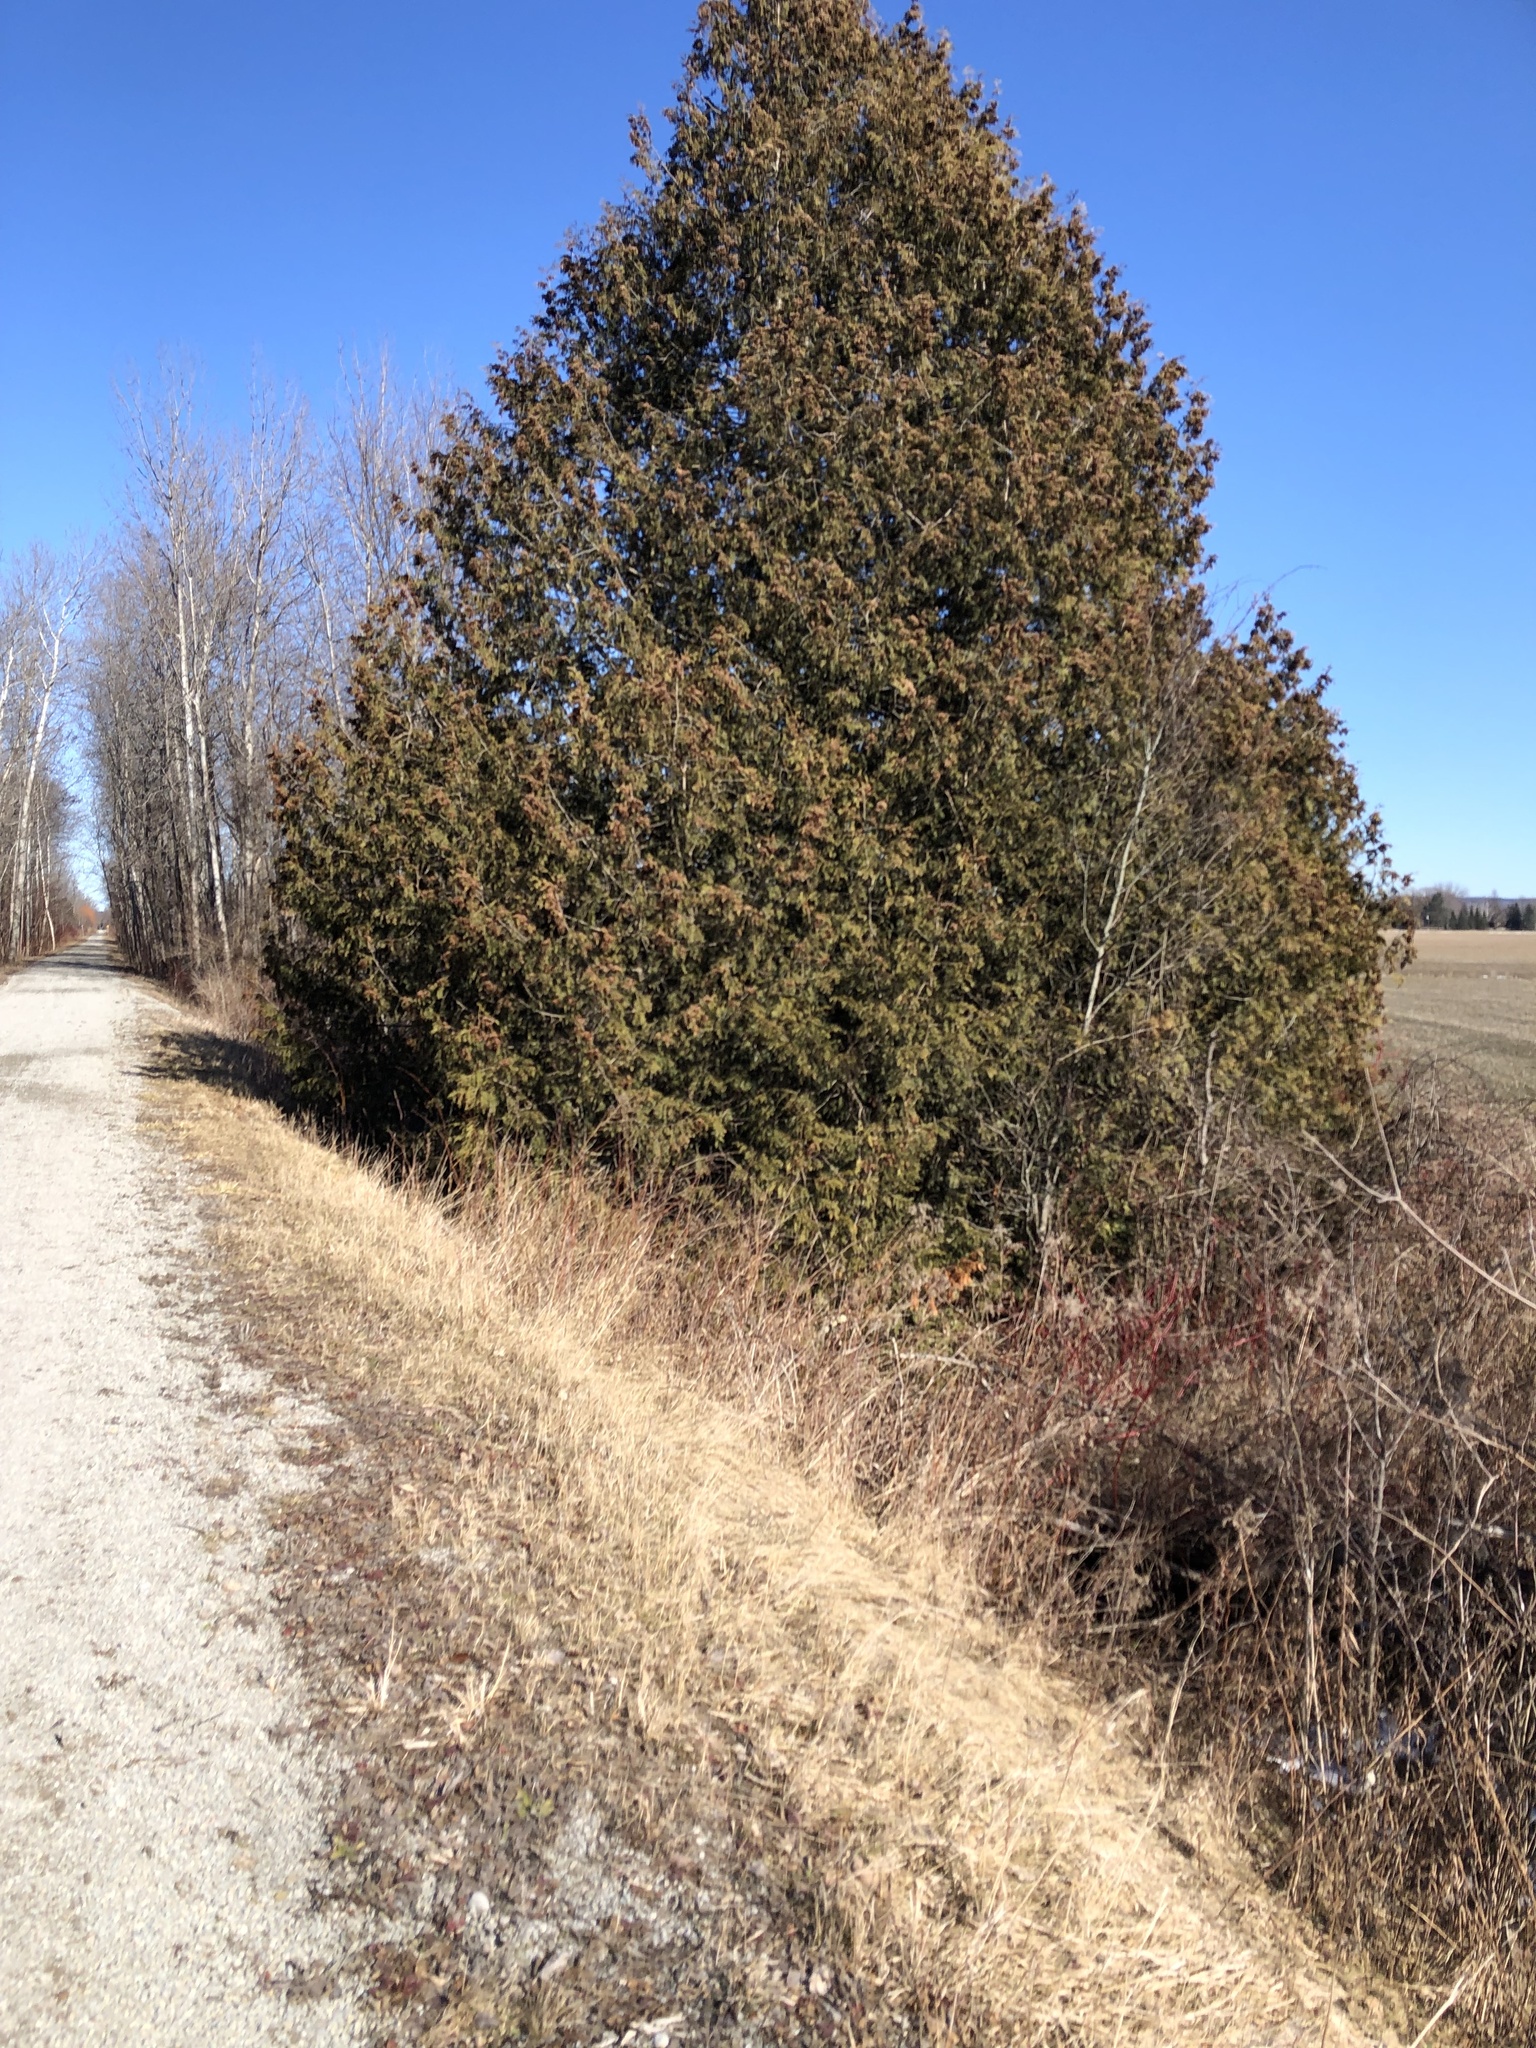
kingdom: Plantae
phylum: Tracheophyta
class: Pinopsida
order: Pinales
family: Cupressaceae
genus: Thuja
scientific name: Thuja occidentalis
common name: Northern white-cedar
